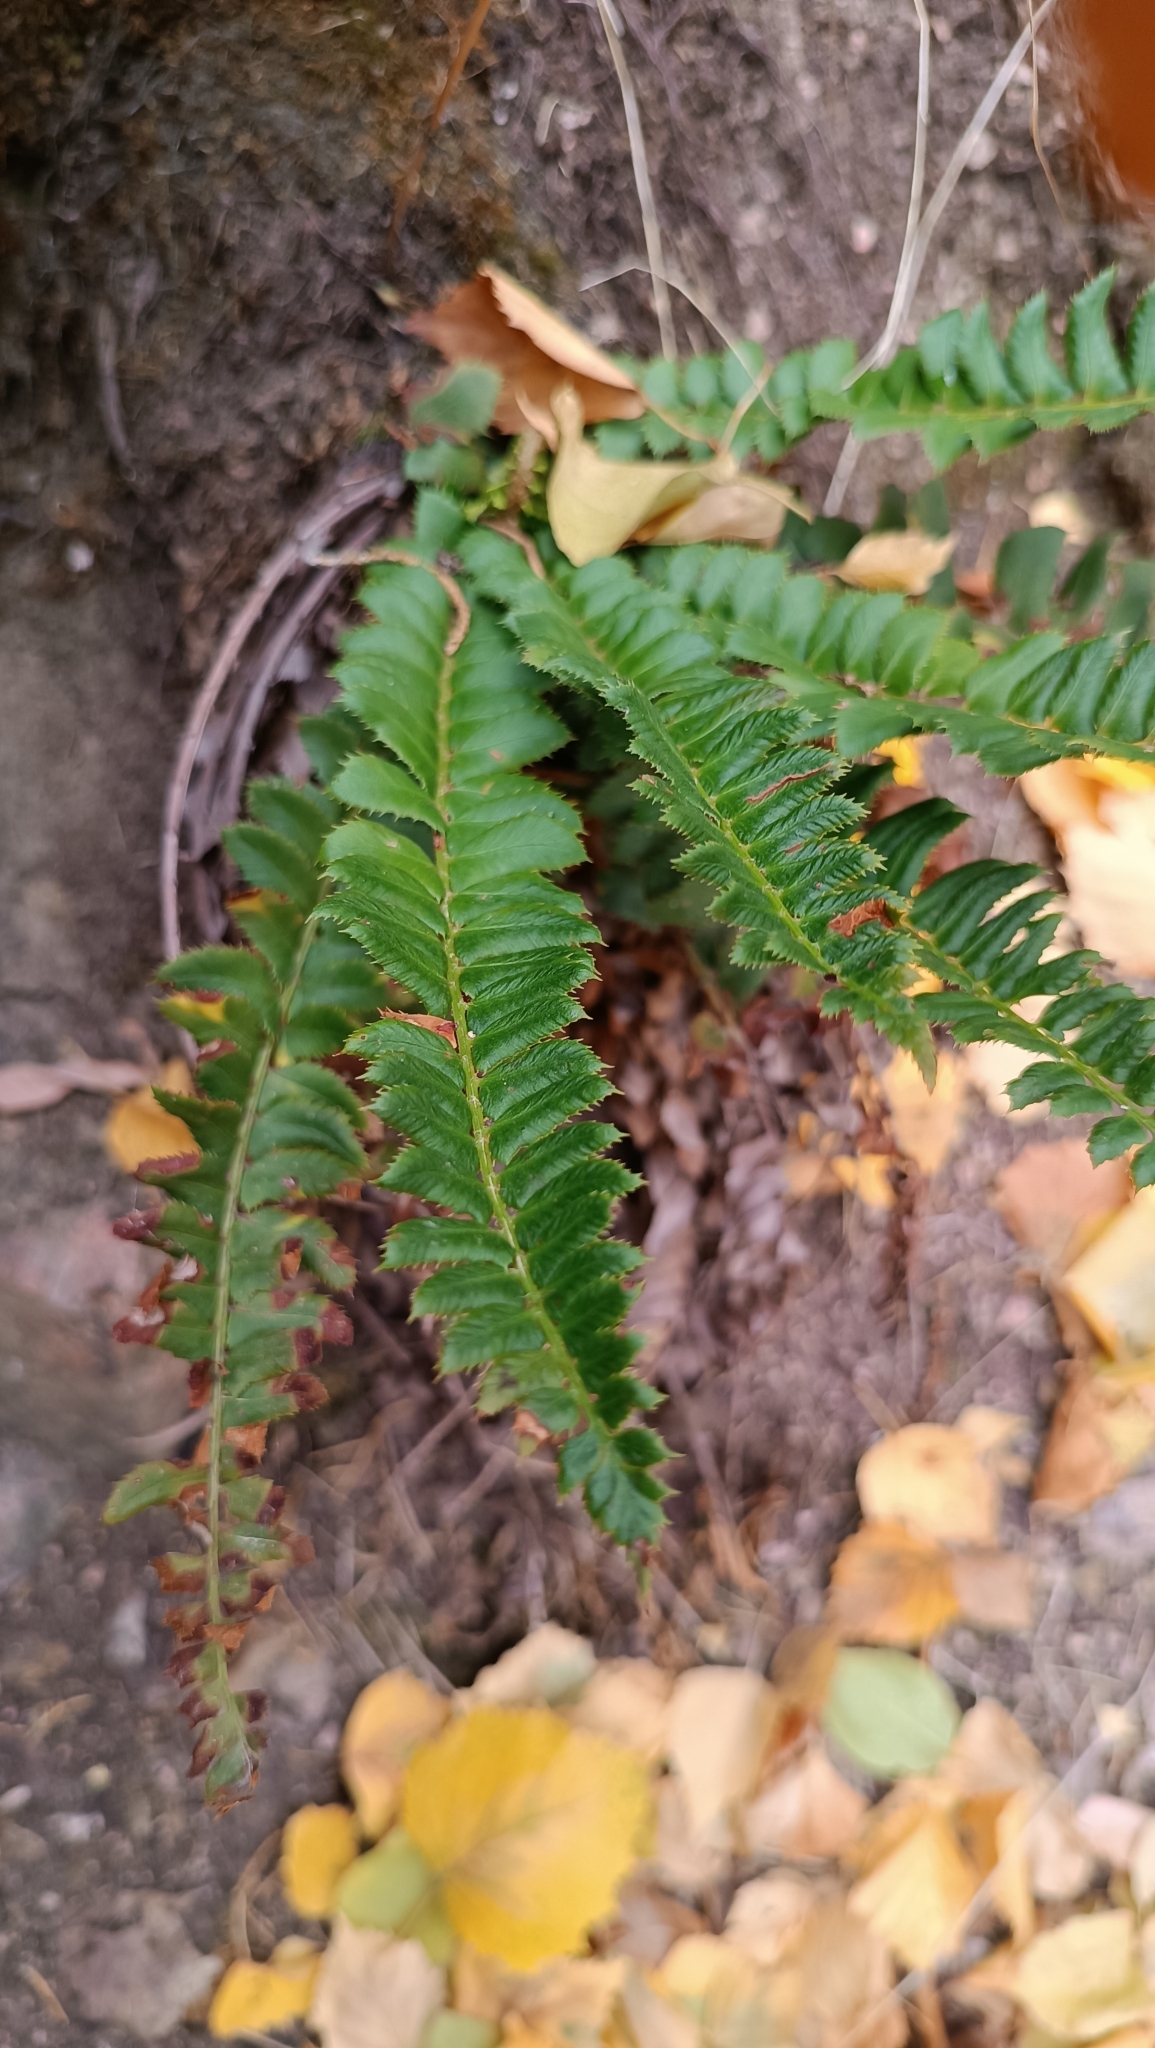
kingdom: Plantae
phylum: Tracheophyta
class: Polypodiopsida
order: Polypodiales
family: Dryopteridaceae
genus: Polystichum
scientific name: Polystichum lonchitis
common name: Holly fern
